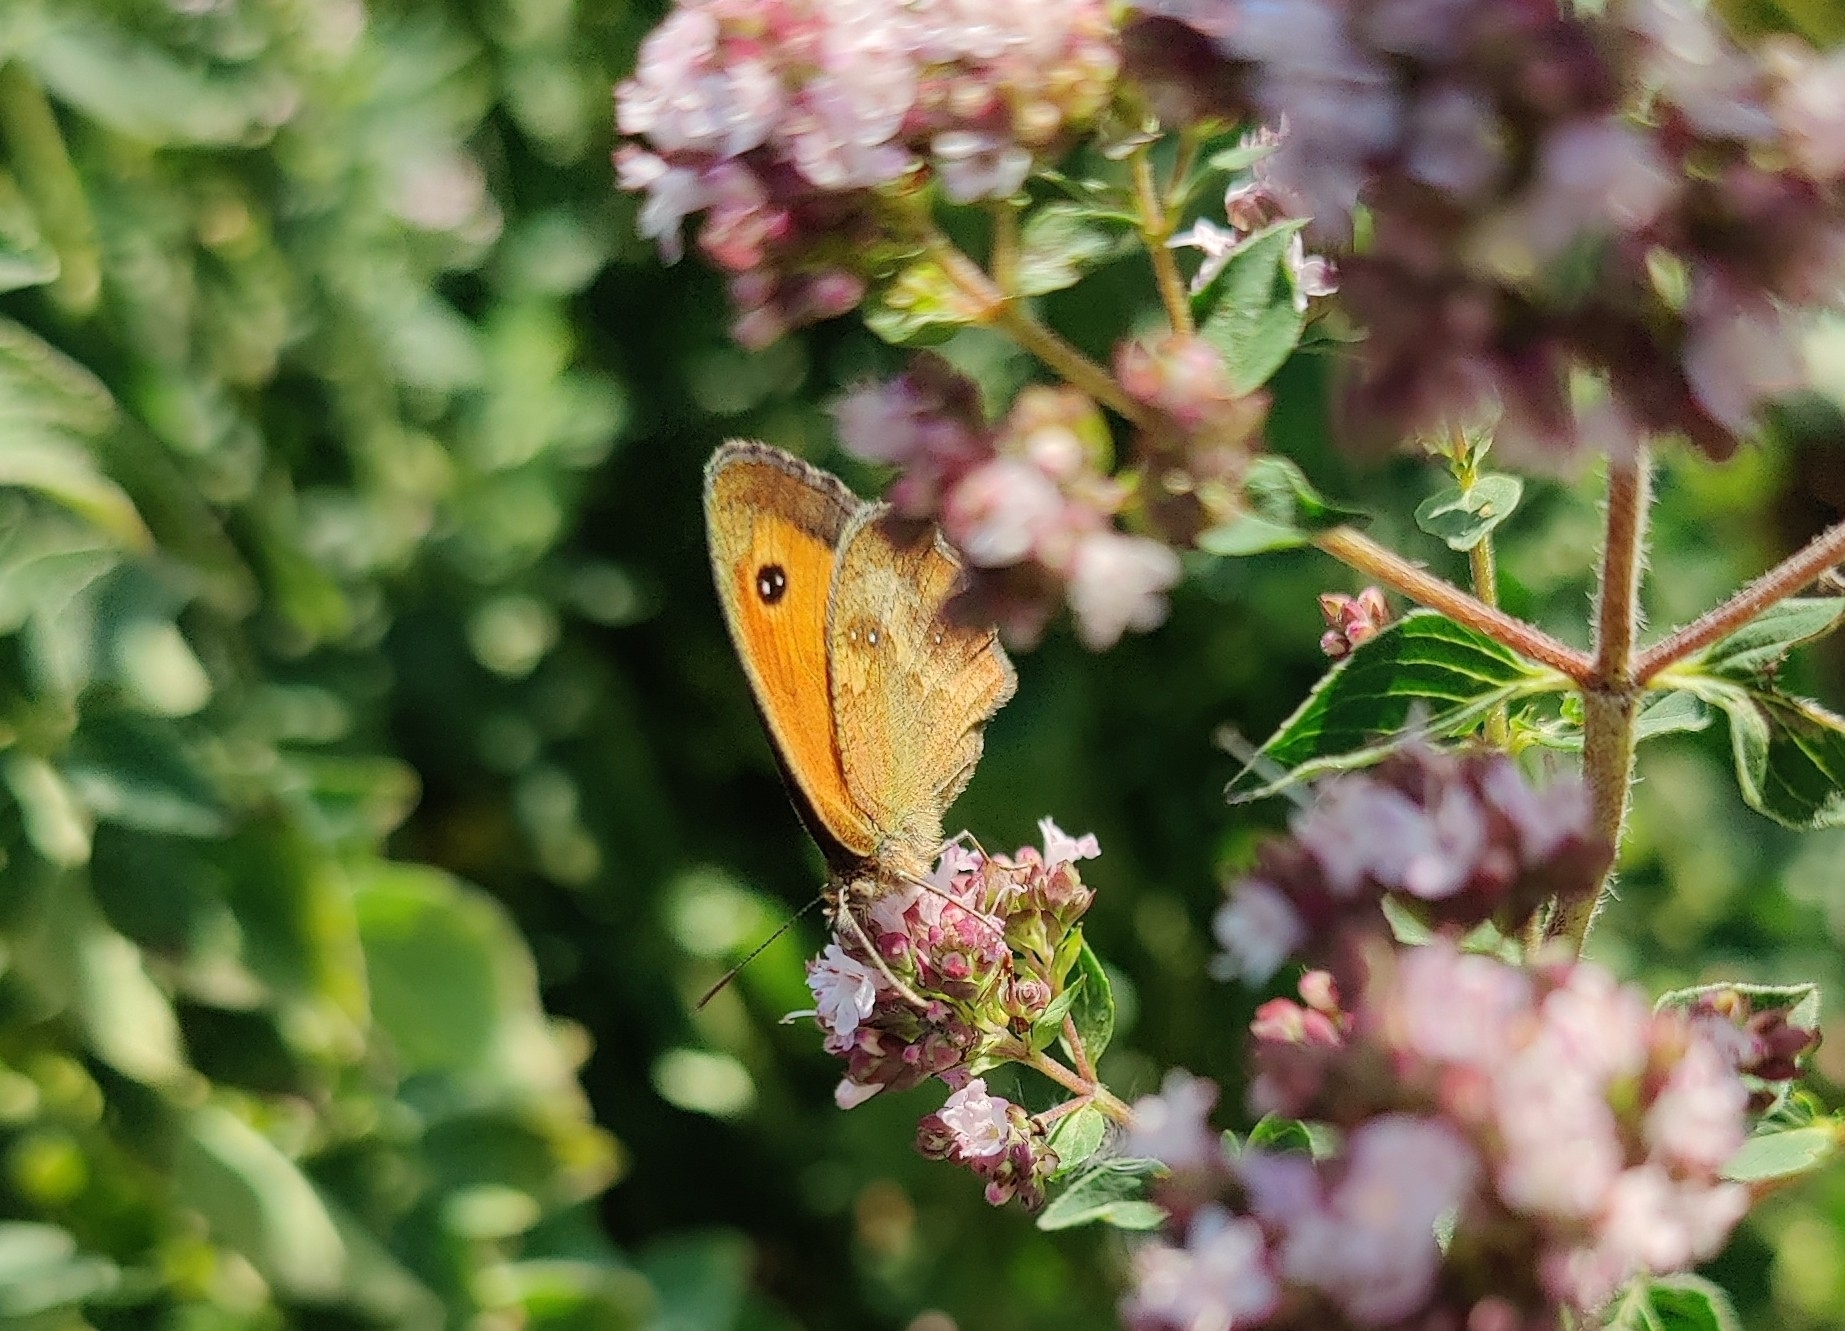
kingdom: Animalia
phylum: Arthropoda
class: Insecta
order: Lepidoptera
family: Nymphalidae
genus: Pyronia
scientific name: Pyronia tithonus
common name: Gatekeeper
